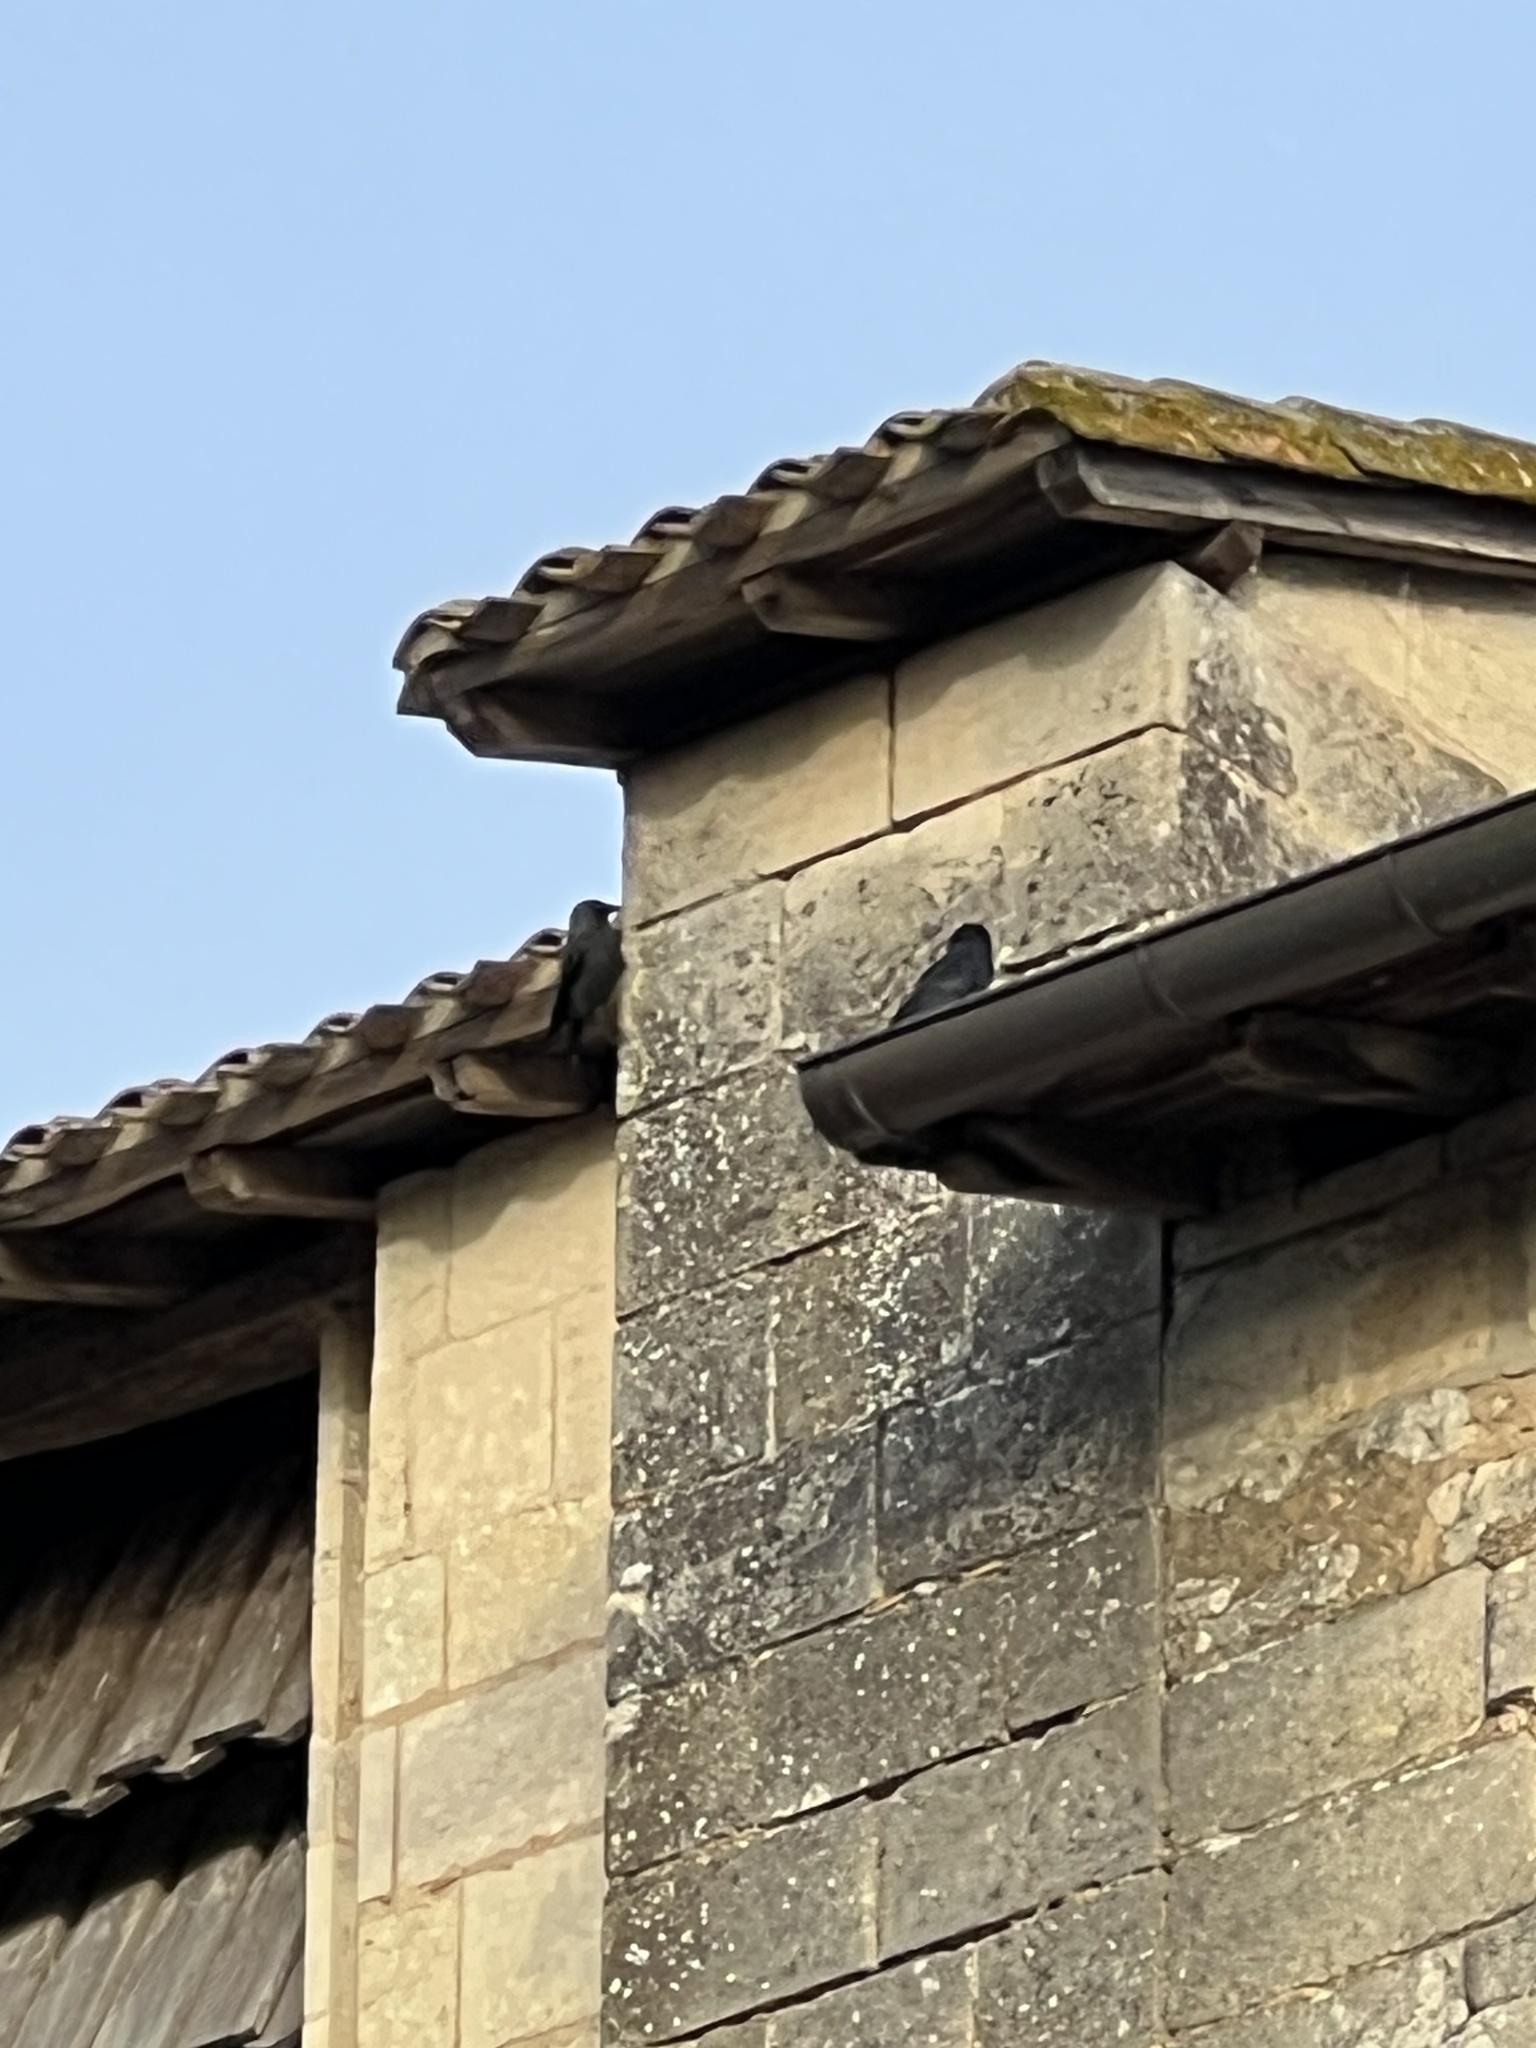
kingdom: Animalia
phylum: Chordata
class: Aves
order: Passeriformes
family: Corvidae
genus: Coloeus
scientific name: Coloeus monedula
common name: Western jackdaw
